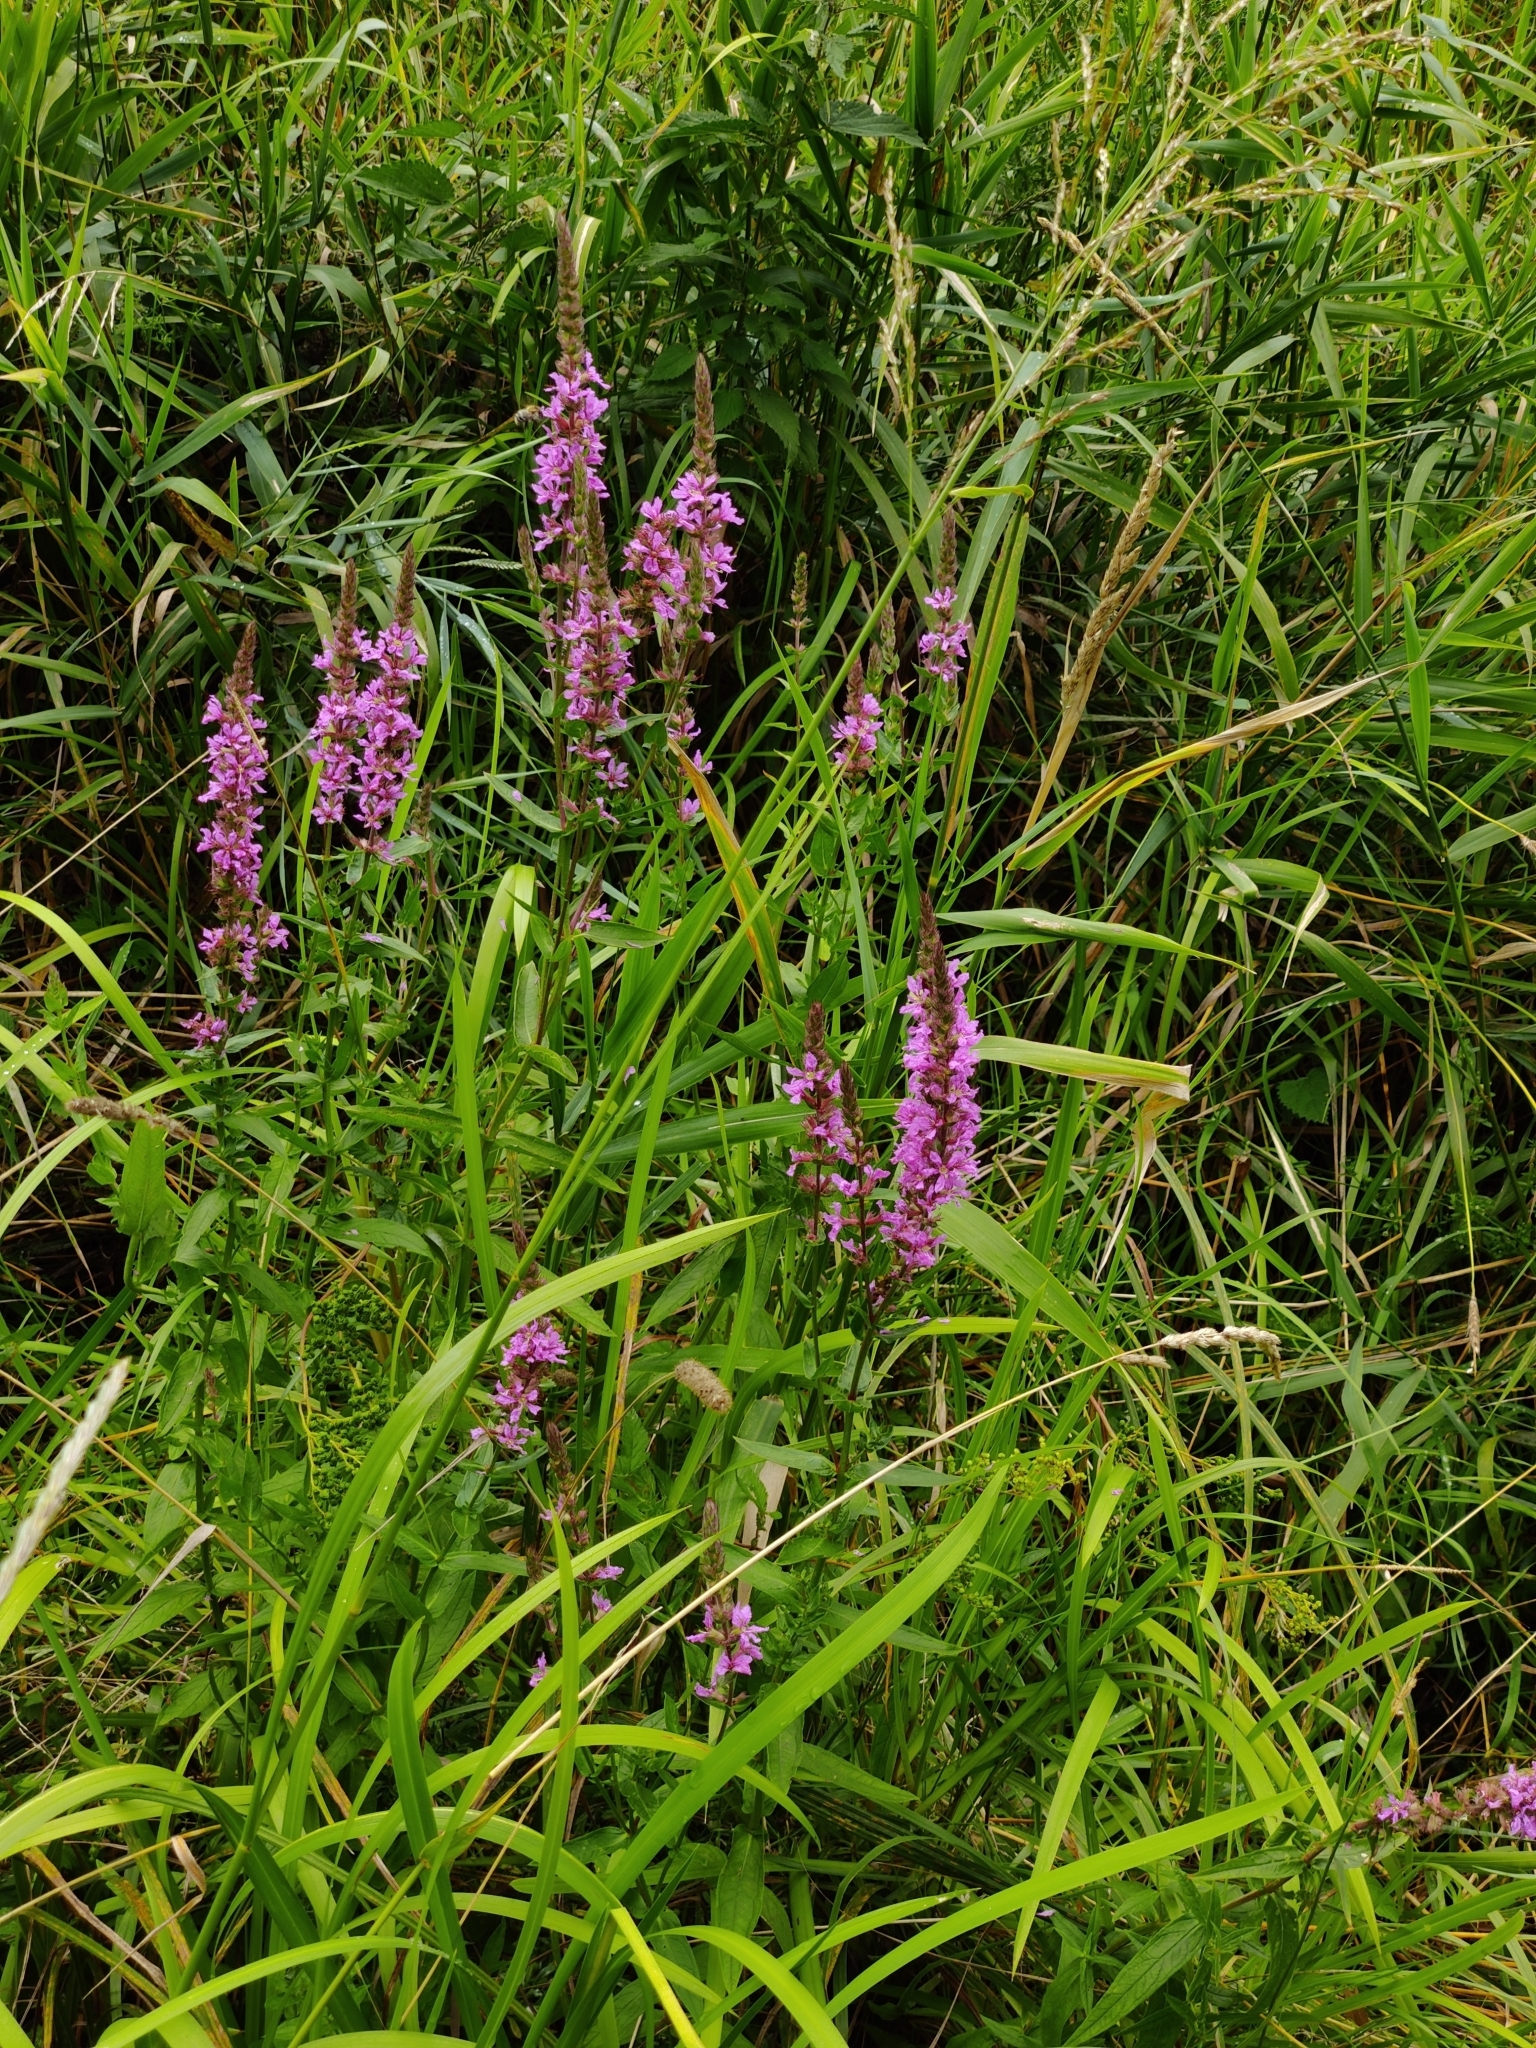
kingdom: Plantae
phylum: Tracheophyta
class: Magnoliopsida
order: Myrtales
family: Lythraceae
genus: Lythrum
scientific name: Lythrum salicaria
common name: Purple loosestrife
